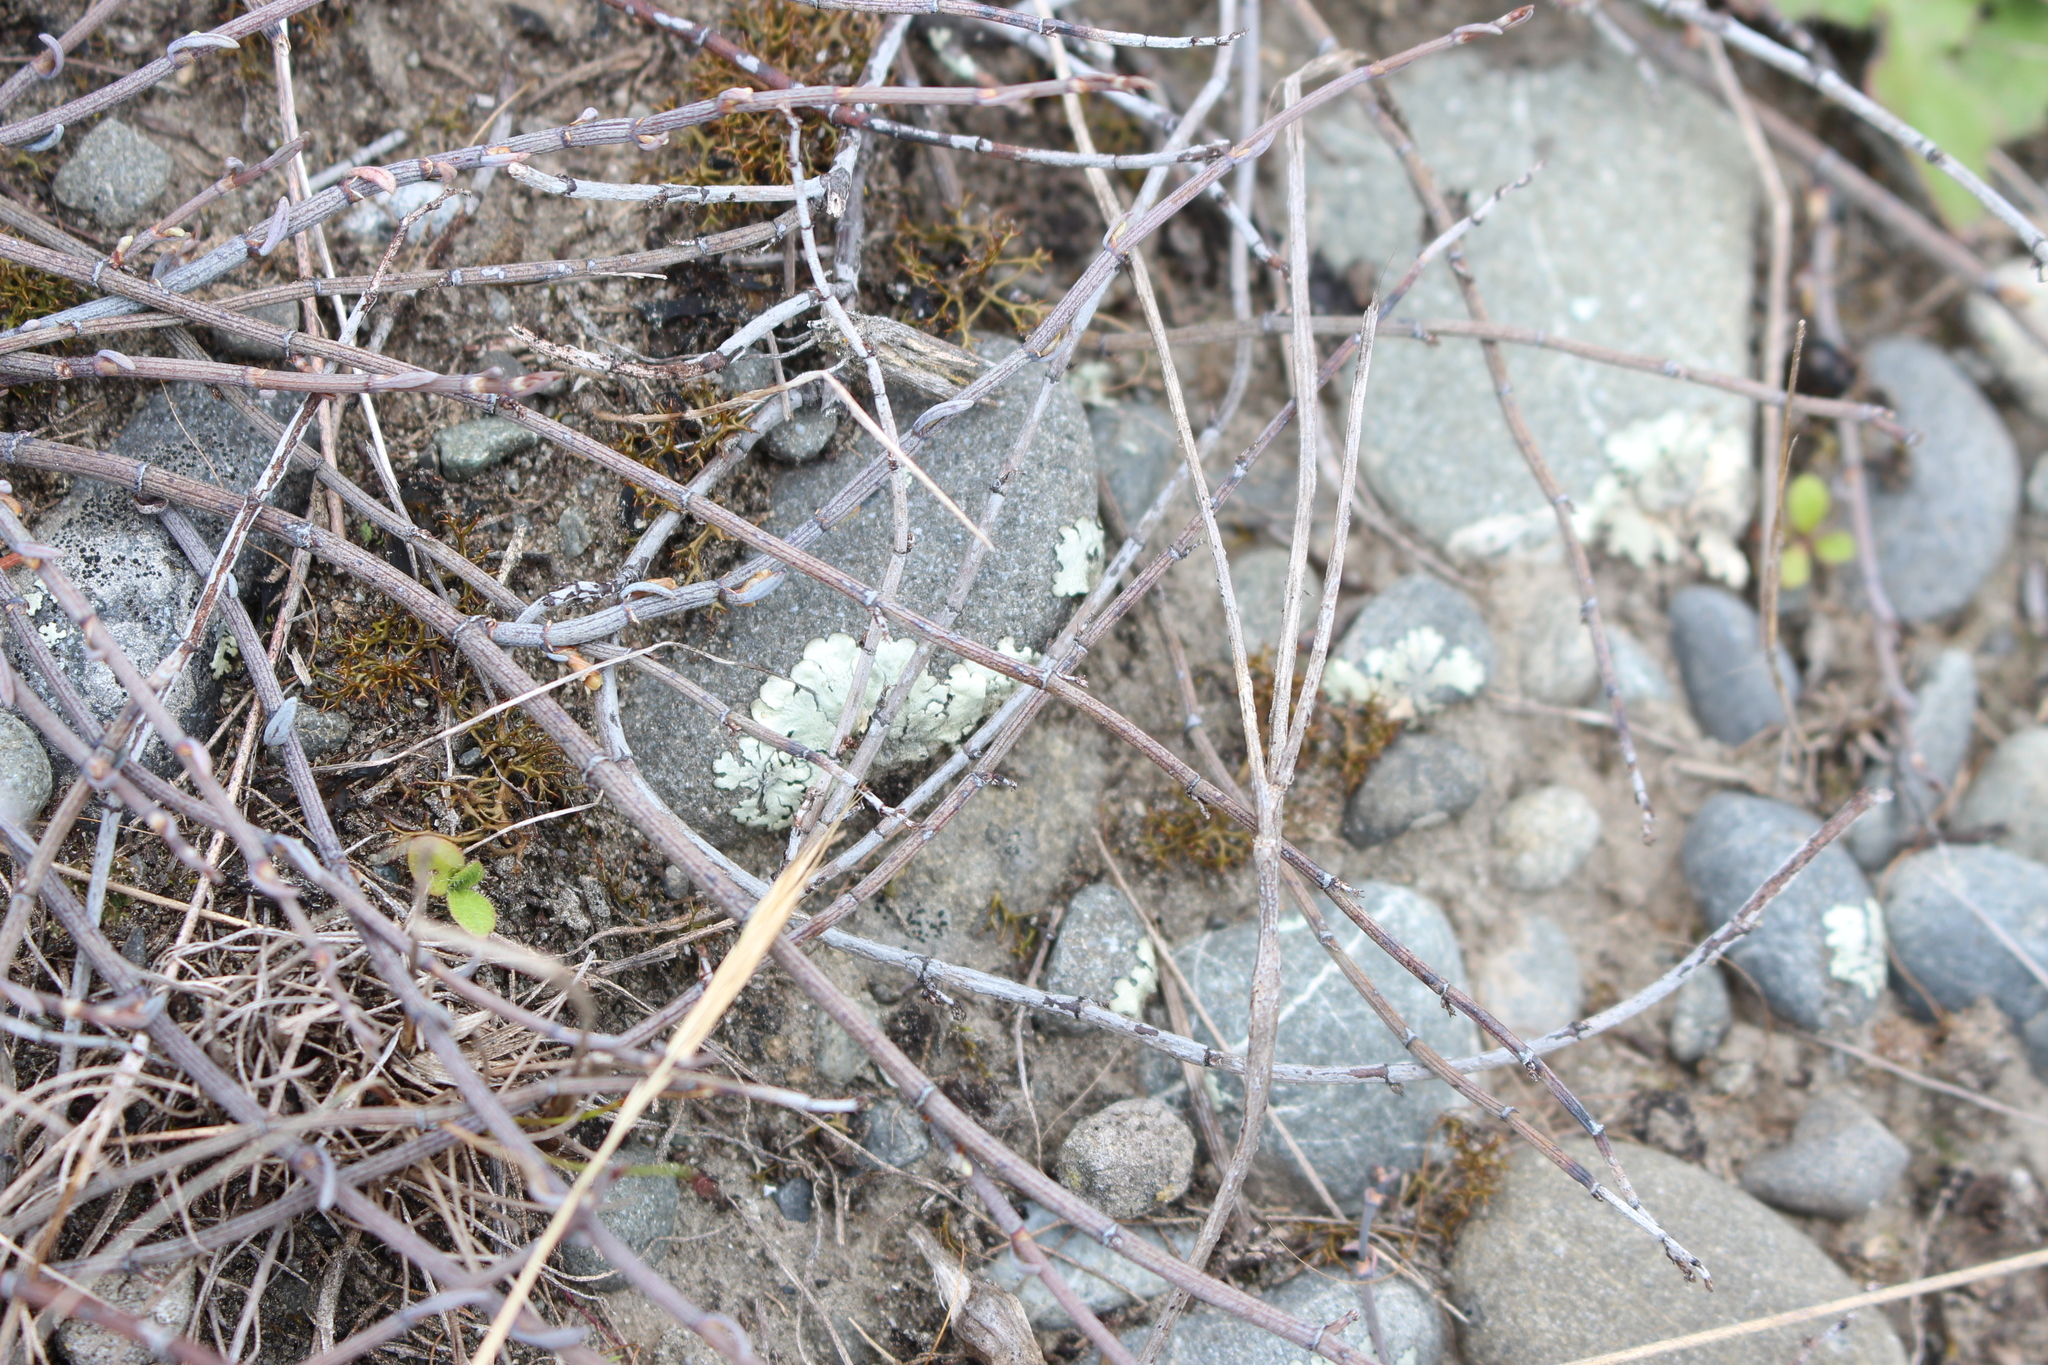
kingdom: Plantae
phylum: Tracheophyta
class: Magnoliopsida
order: Caryophyllales
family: Polygonaceae
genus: Muehlenbeckia
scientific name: Muehlenbeckia ephedroides
